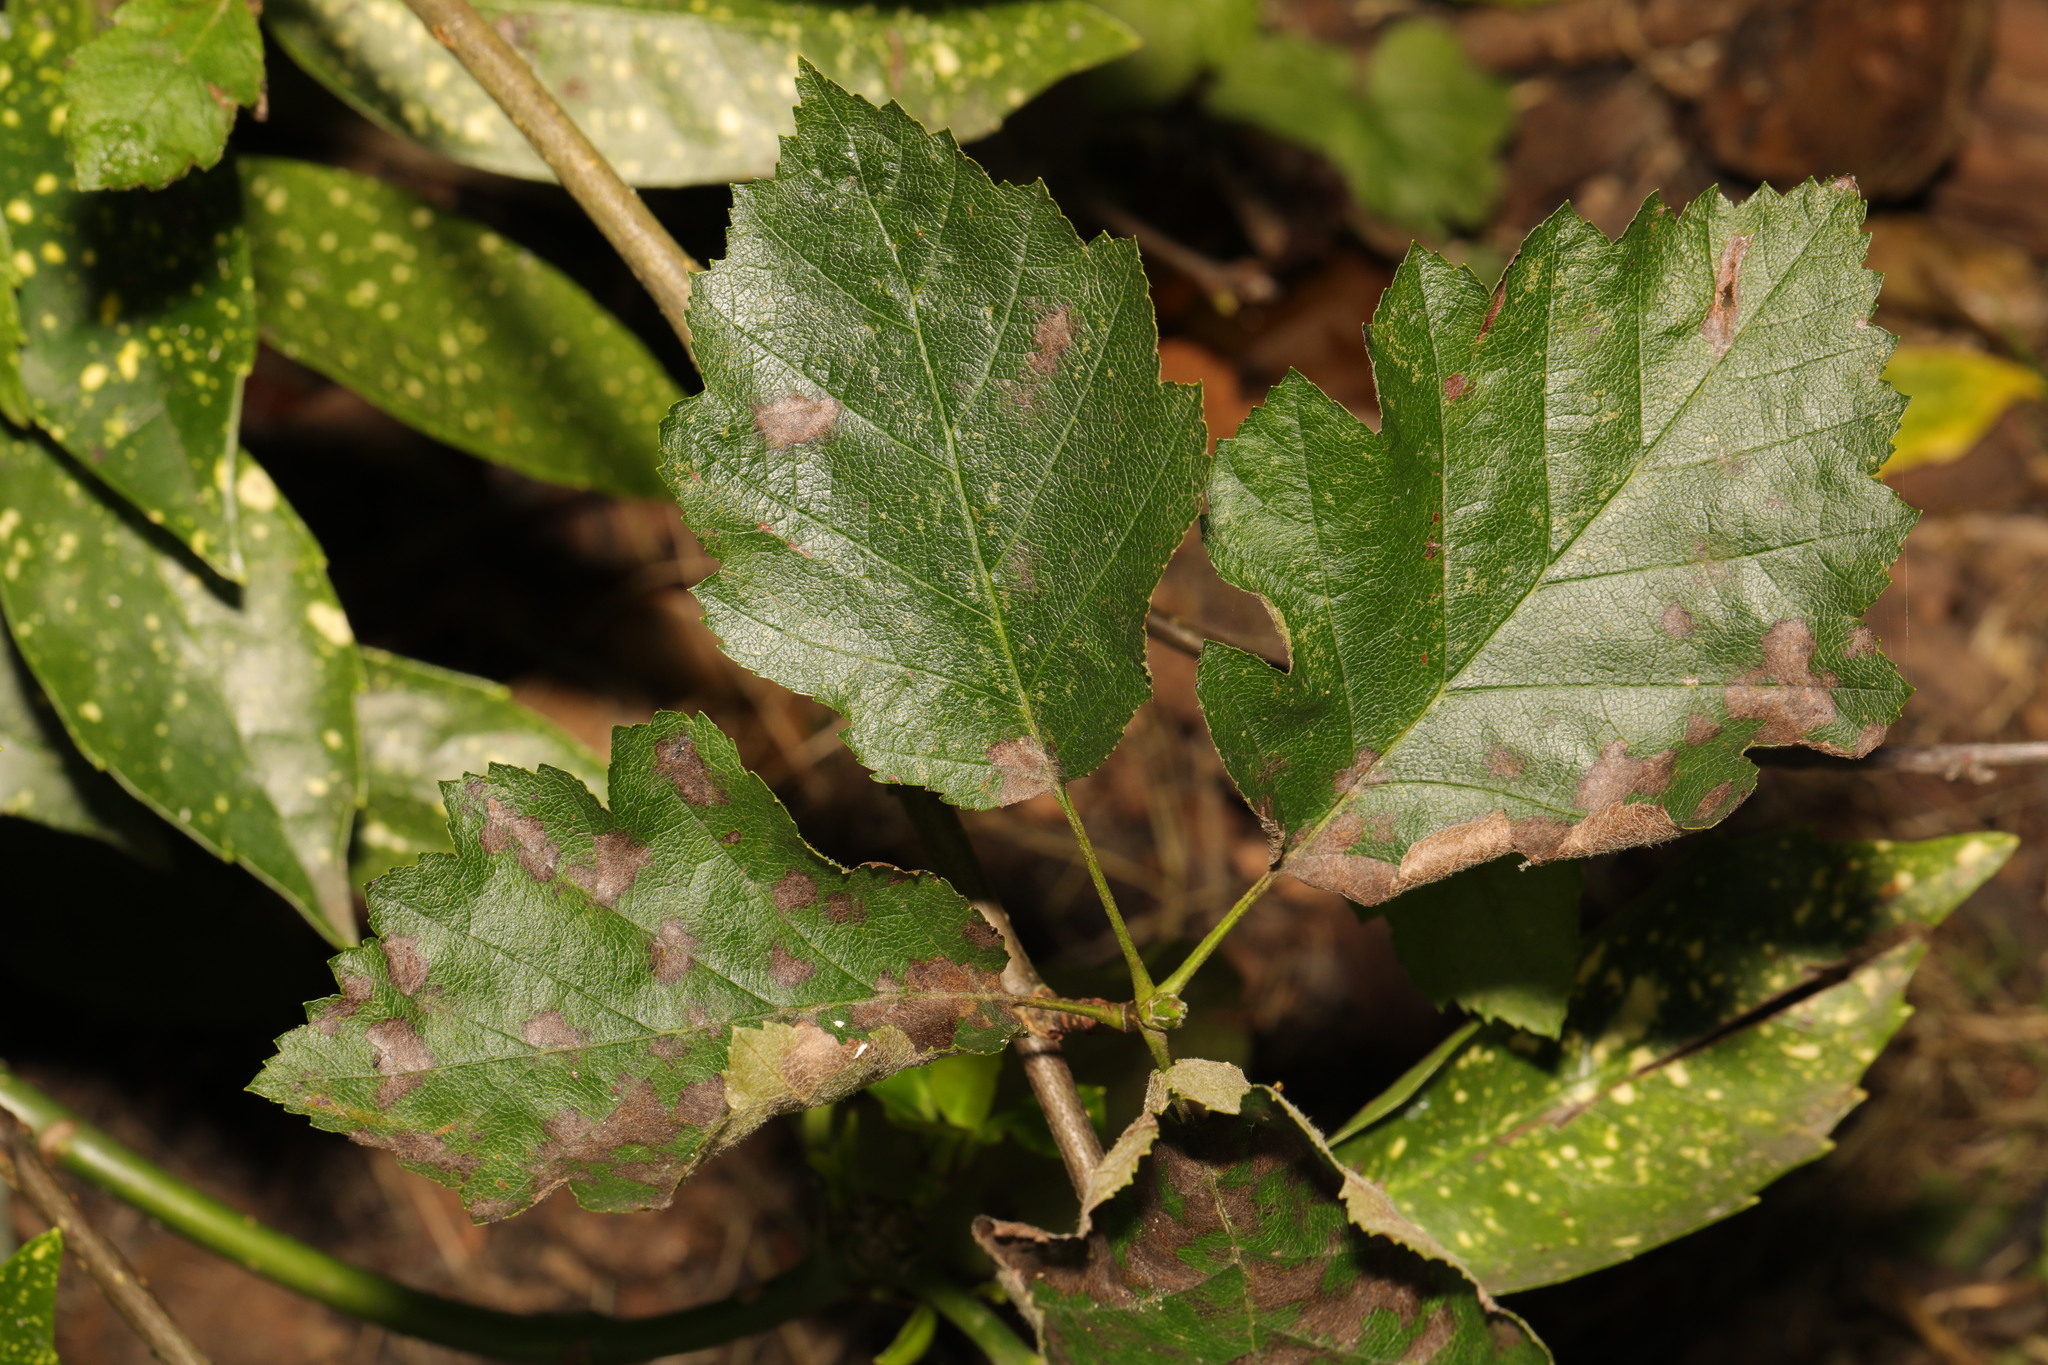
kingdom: Plantae
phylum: Tracheophyta
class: Magnoliopsida
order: Rosales
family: Rosaceae
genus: Scandosorbus
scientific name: Scandosorbus intermedia
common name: Swedish whitebeam
